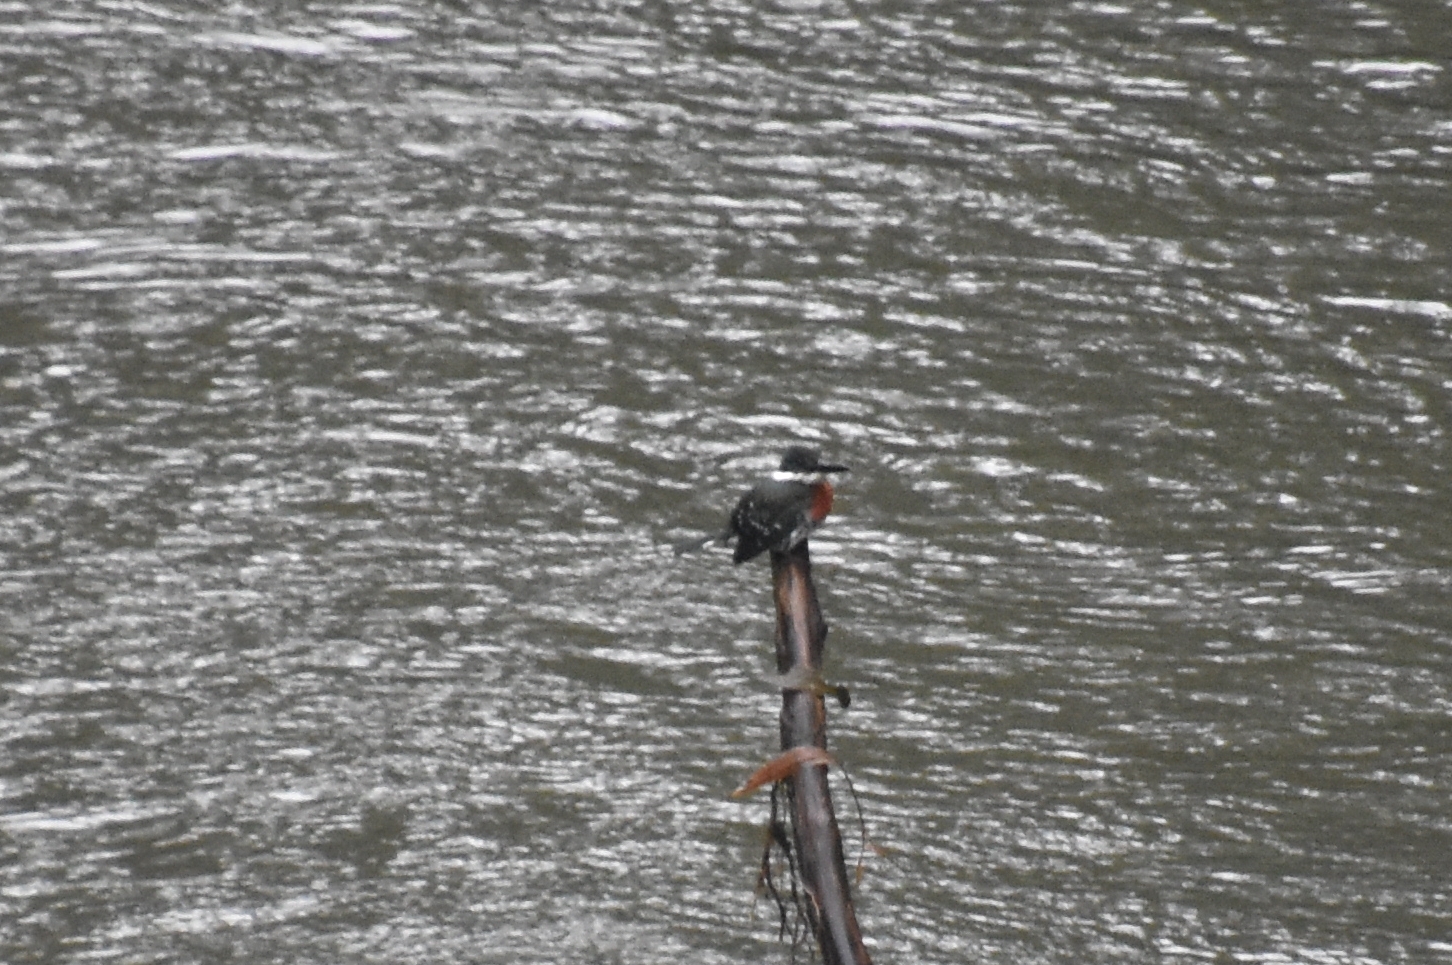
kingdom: Animalia
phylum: Chordata
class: Aves
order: Coraciiformes
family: Alcedinidae
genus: Chloroceryle
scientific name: Chloroceryle americana
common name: Green kingfisher
